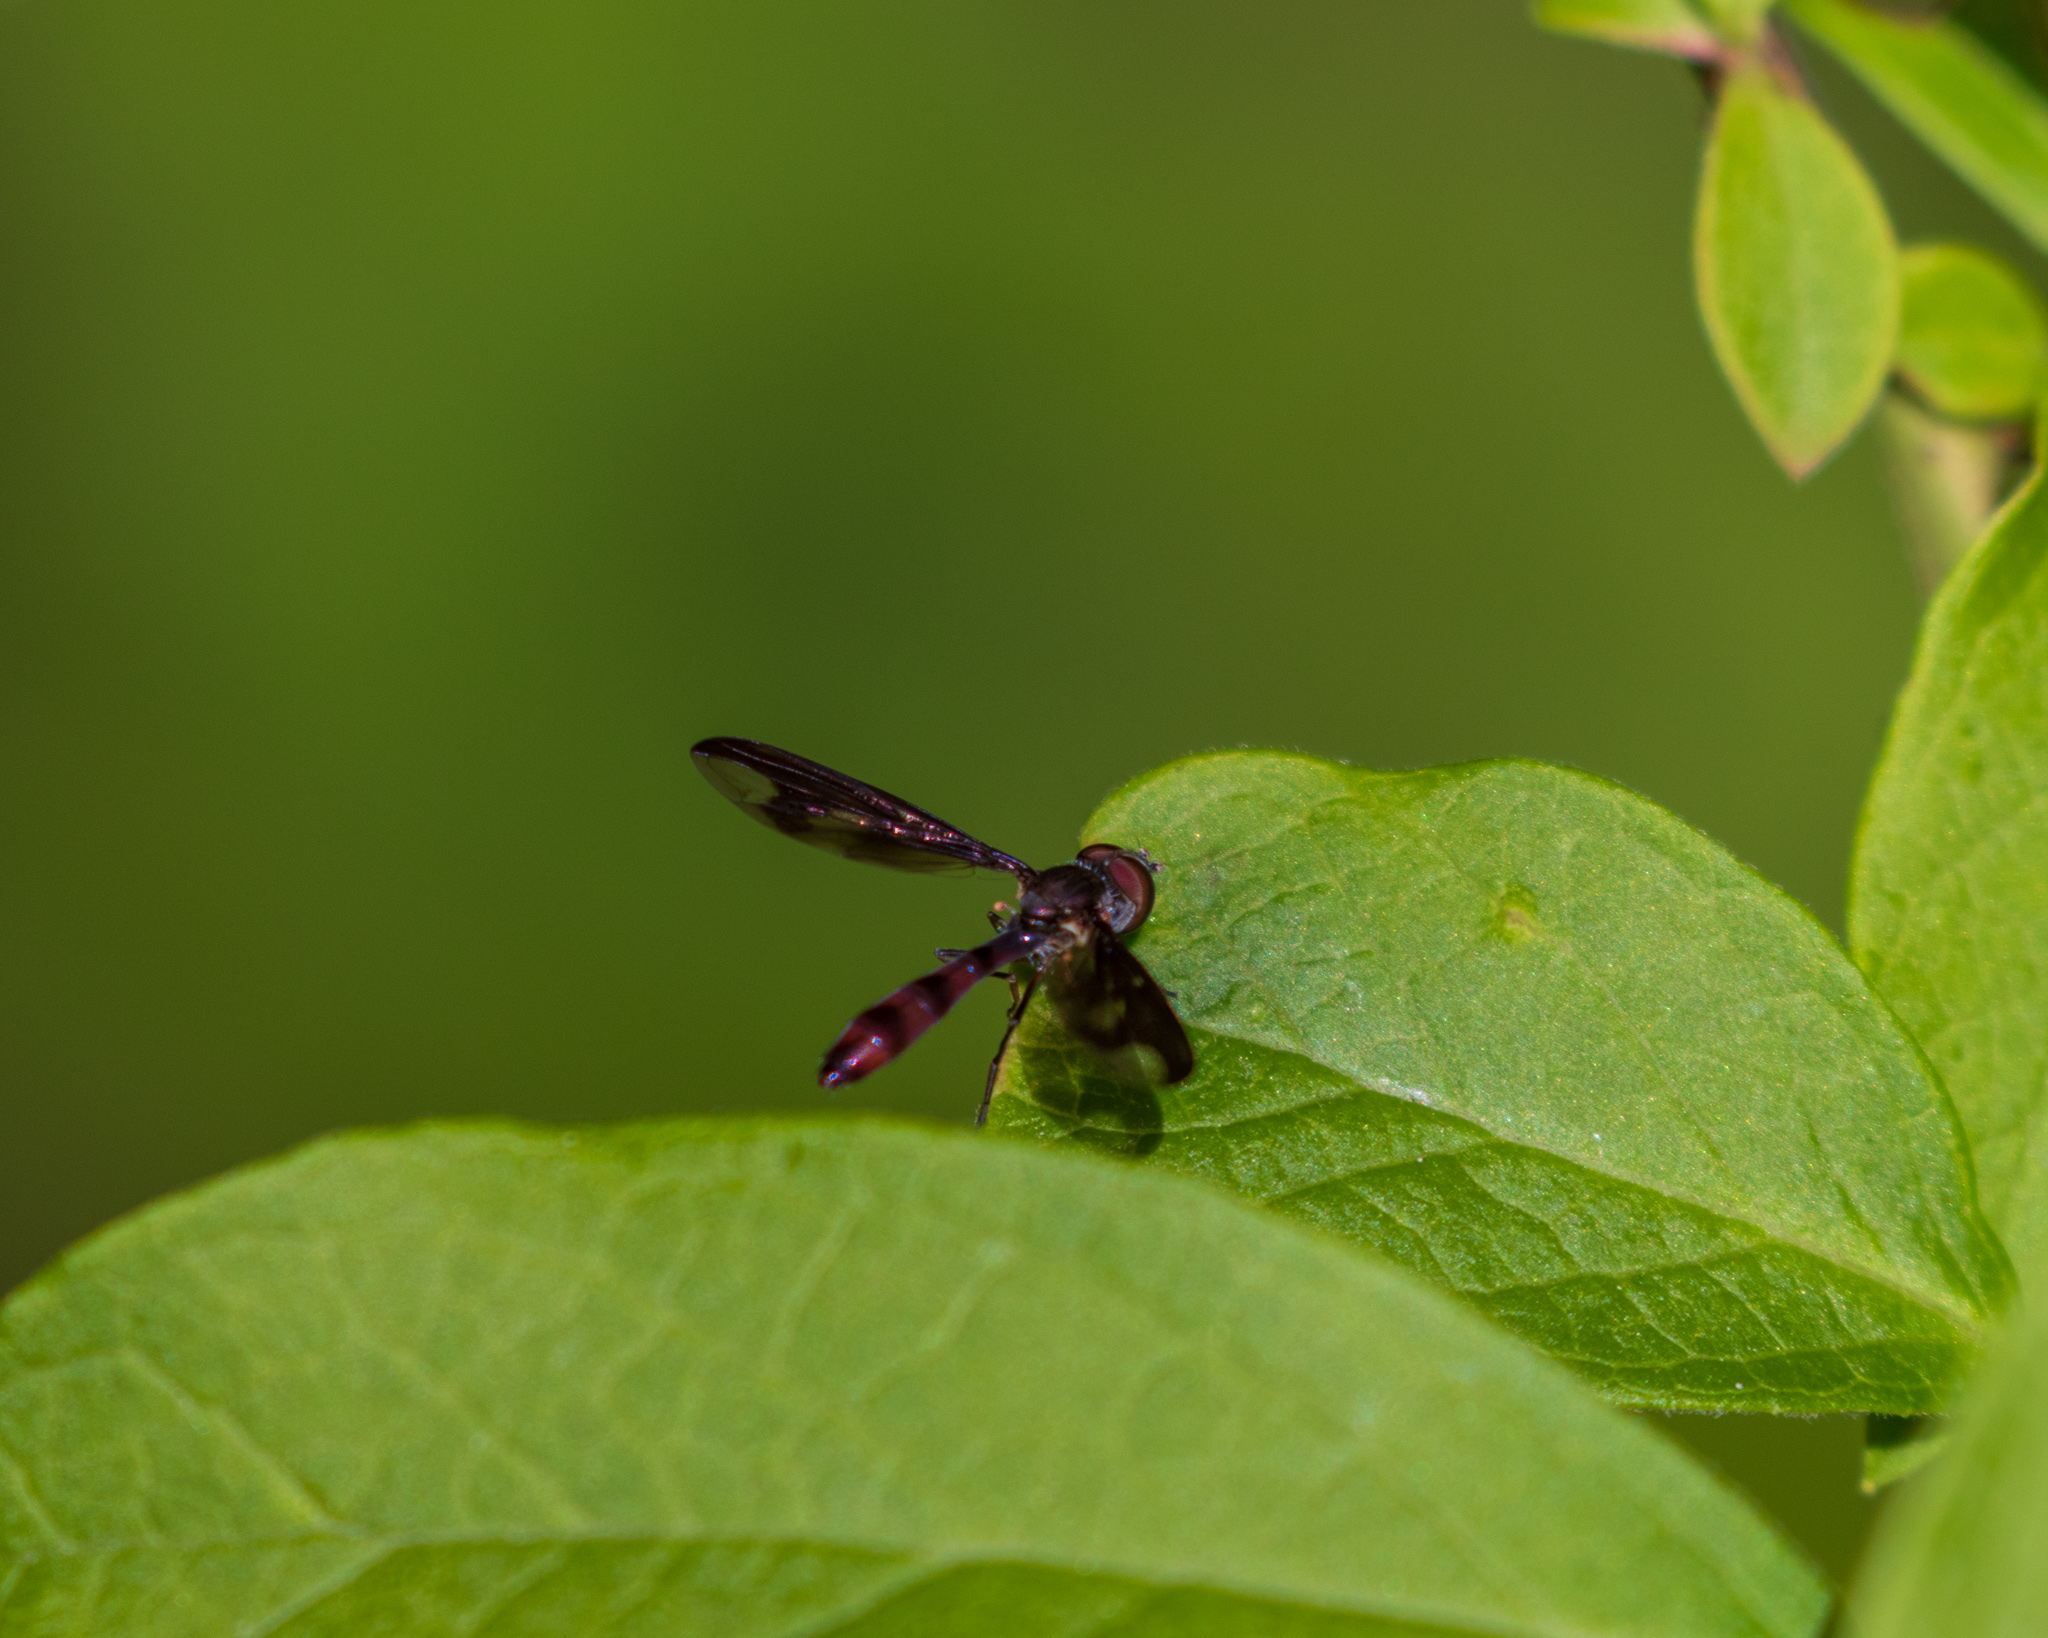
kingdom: Animalia
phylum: Arthropoda
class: Insecta
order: Diptera
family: Syrphidae
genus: Ocyptamus
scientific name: Ocyptamus fuscipennis
